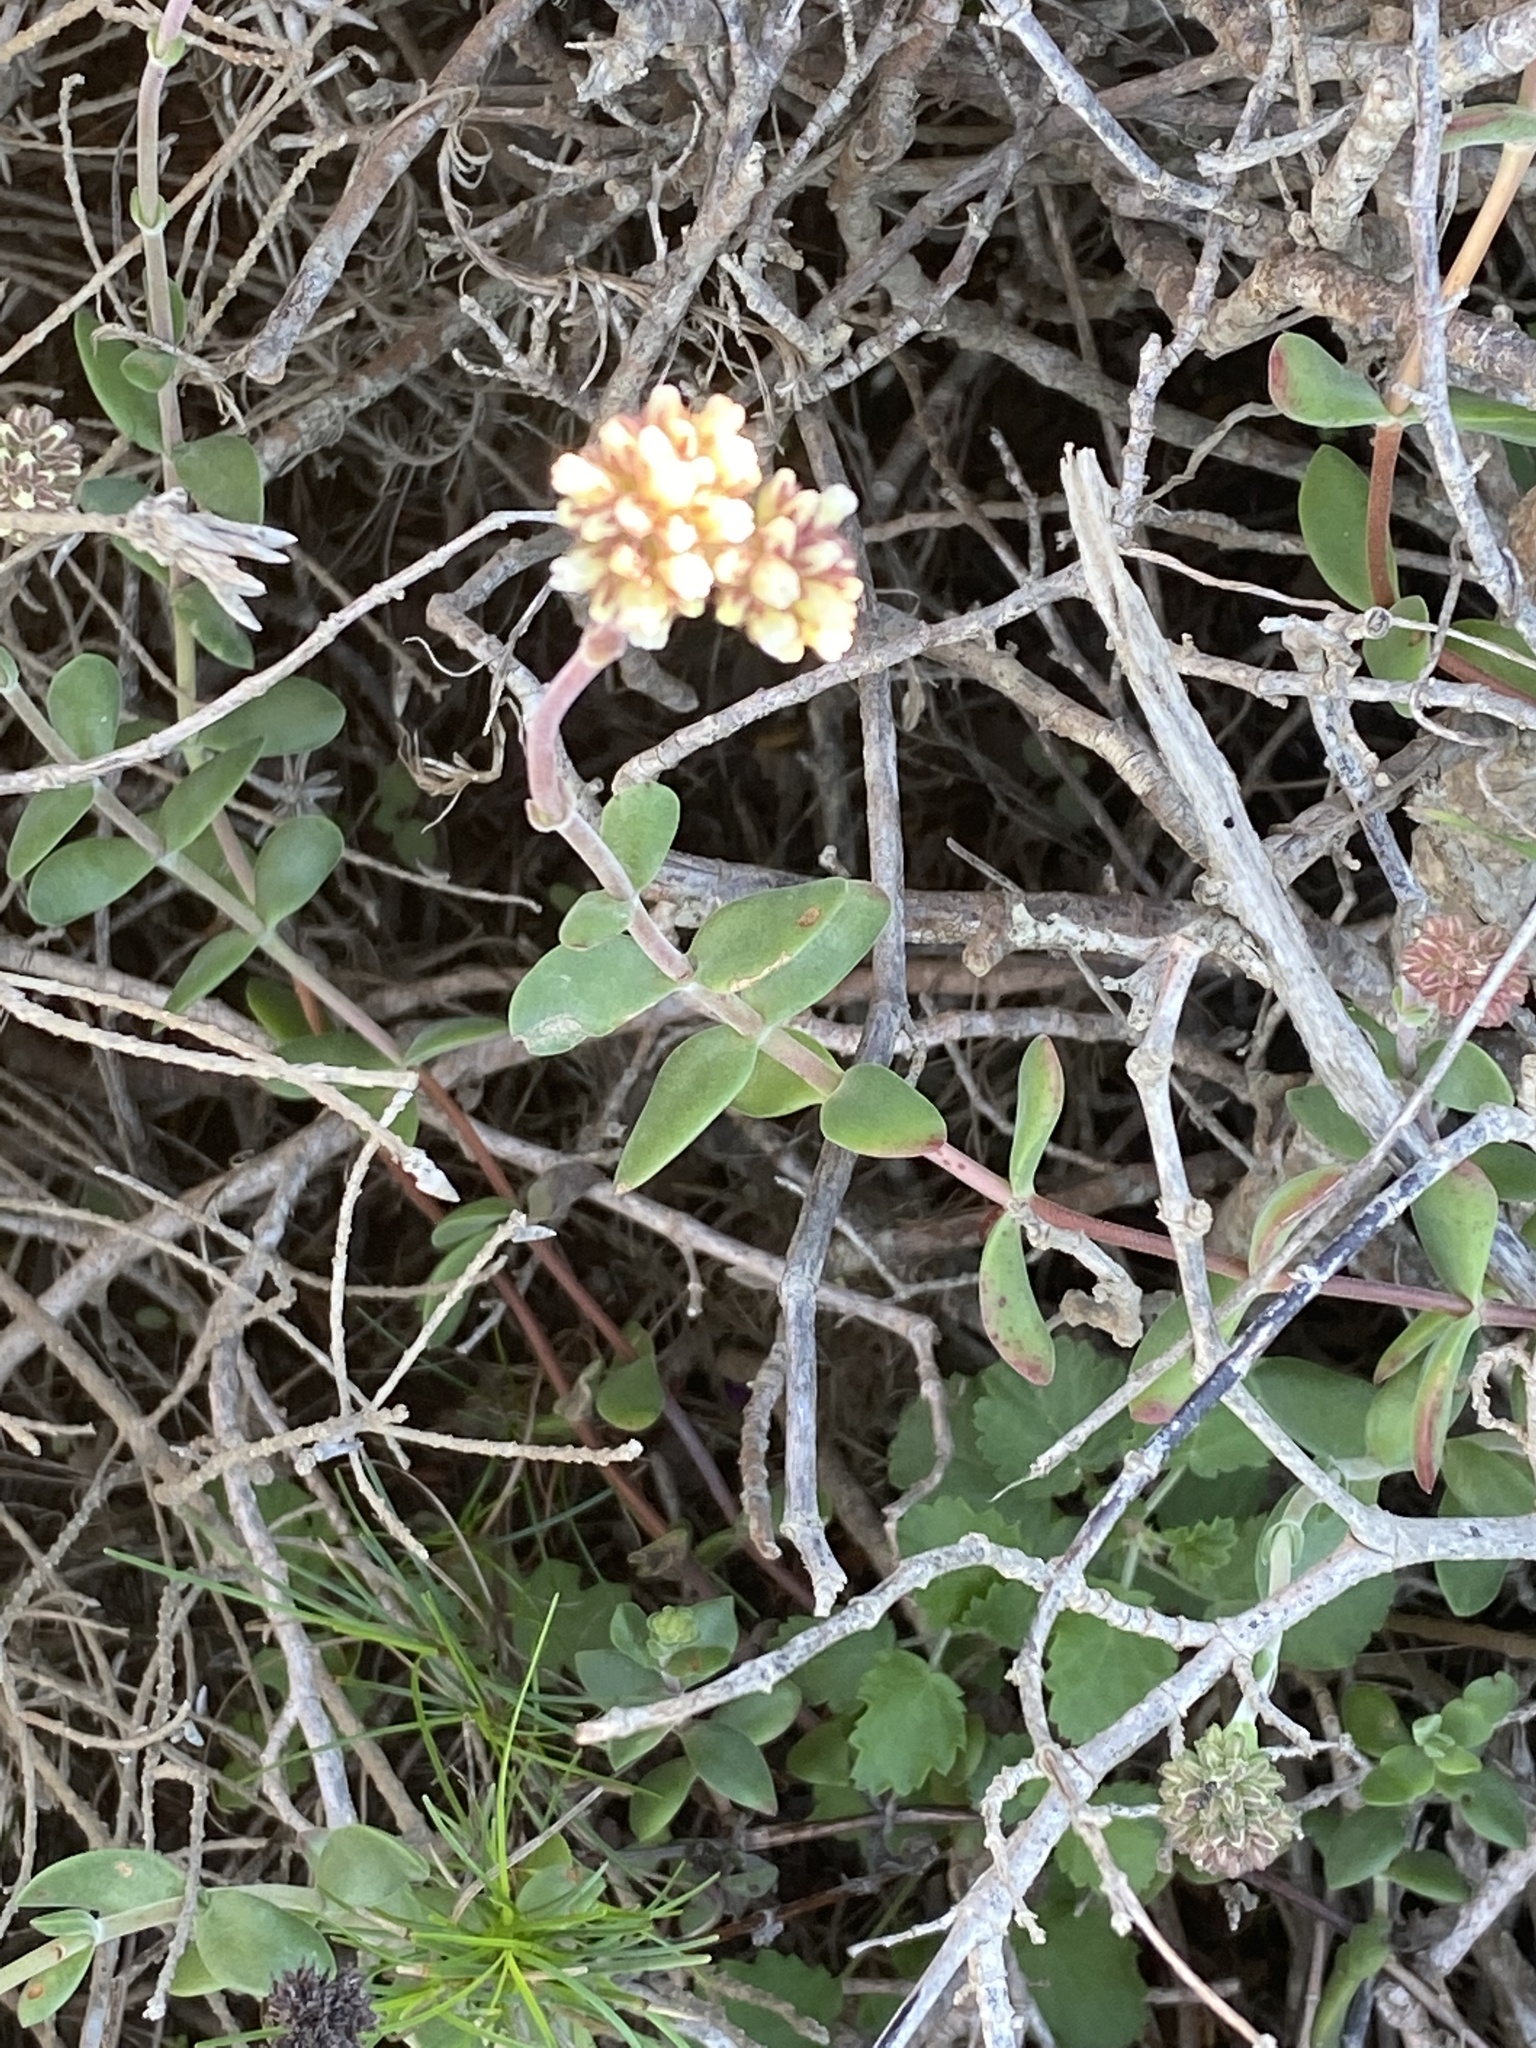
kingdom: Plantae
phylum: Tracheophyta
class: Magnoliopsida
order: Saxifragales
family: Crassulaceae
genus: Crassula
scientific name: Crassula pubescens
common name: Jersey pigmyweed
